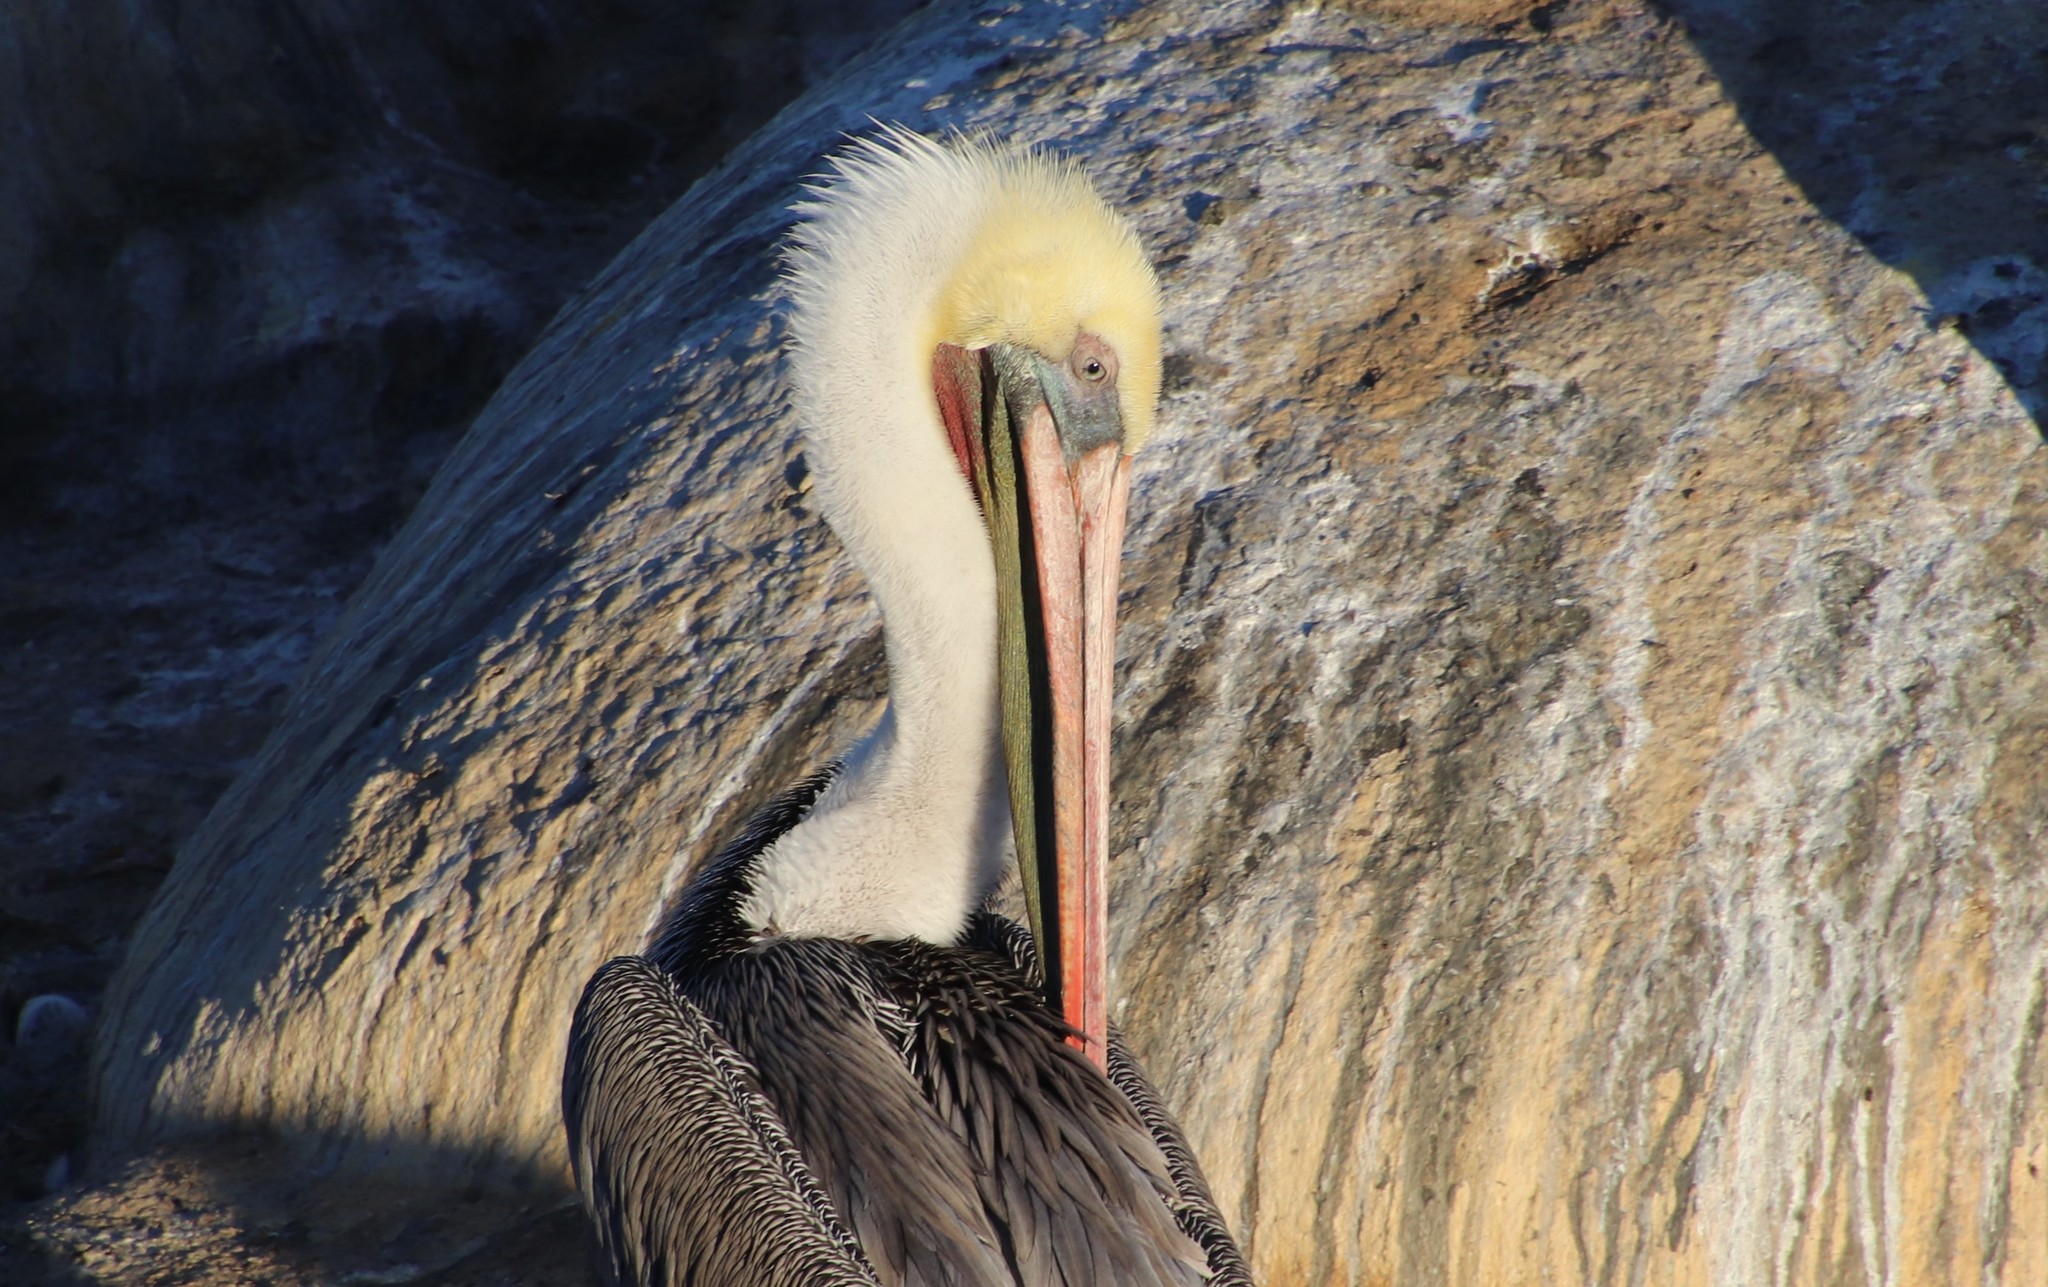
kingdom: Animalia
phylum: Chordata
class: Aves
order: Pelecaniformes
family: Pelecanidae
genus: Pelecanus
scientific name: Pelecanus occidentalis
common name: Brown pelican
